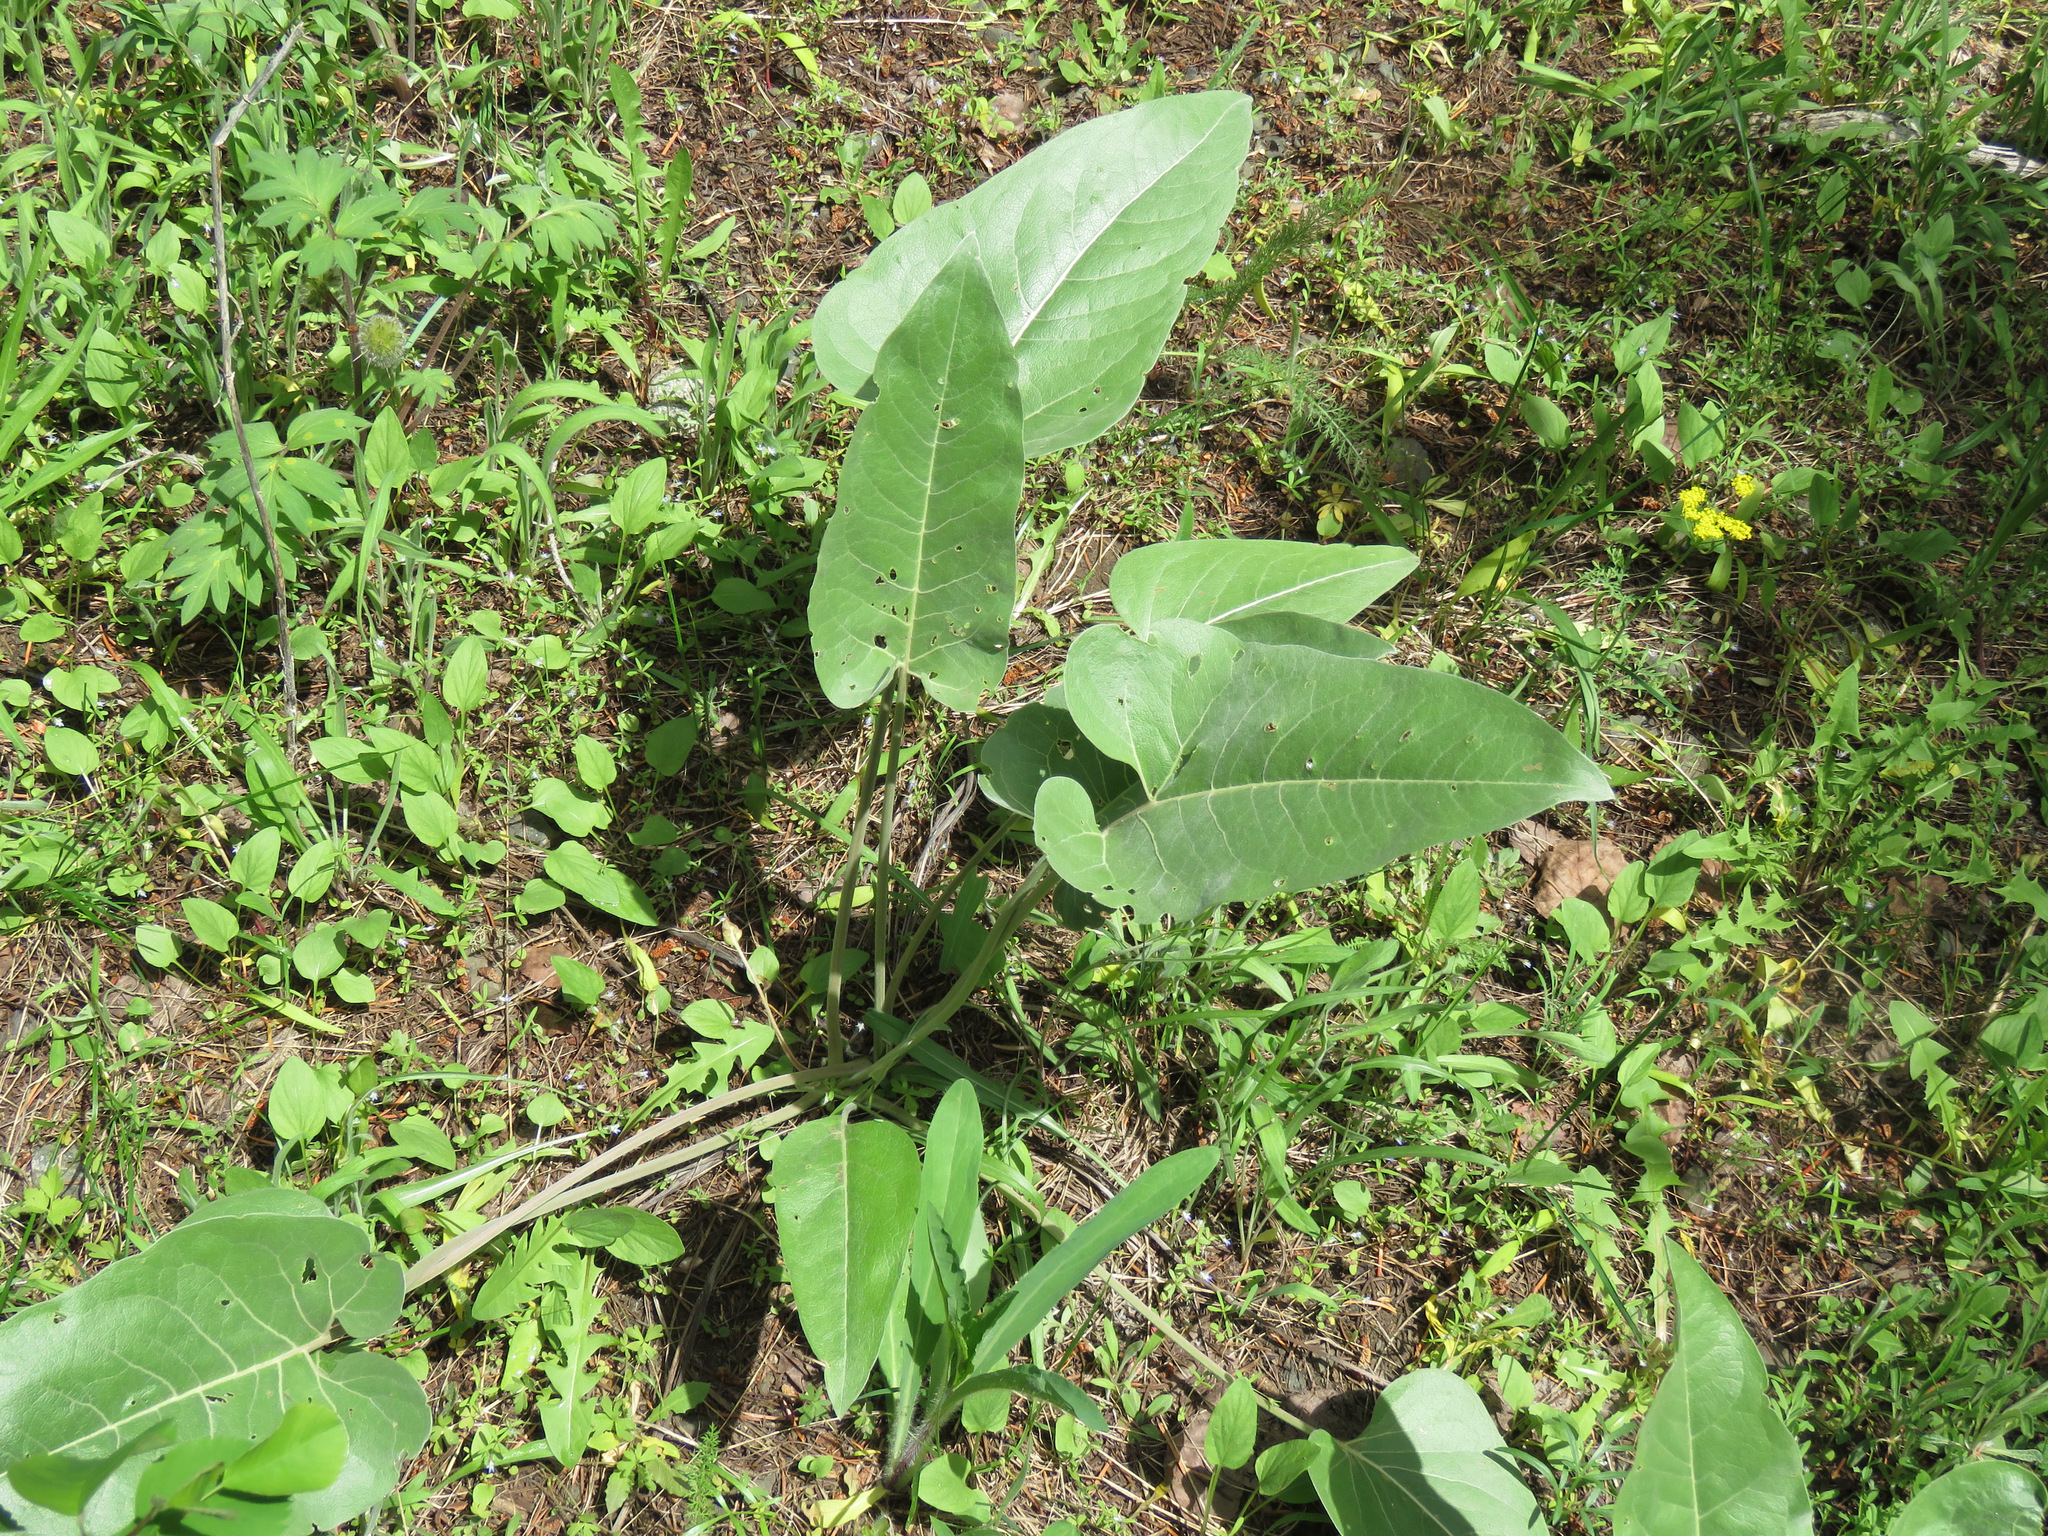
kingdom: Plantae
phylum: Tracheophyta
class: Magnoliopsida
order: Asterales
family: Asteraceae
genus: Wyethia
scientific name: Wyethia sagittata
